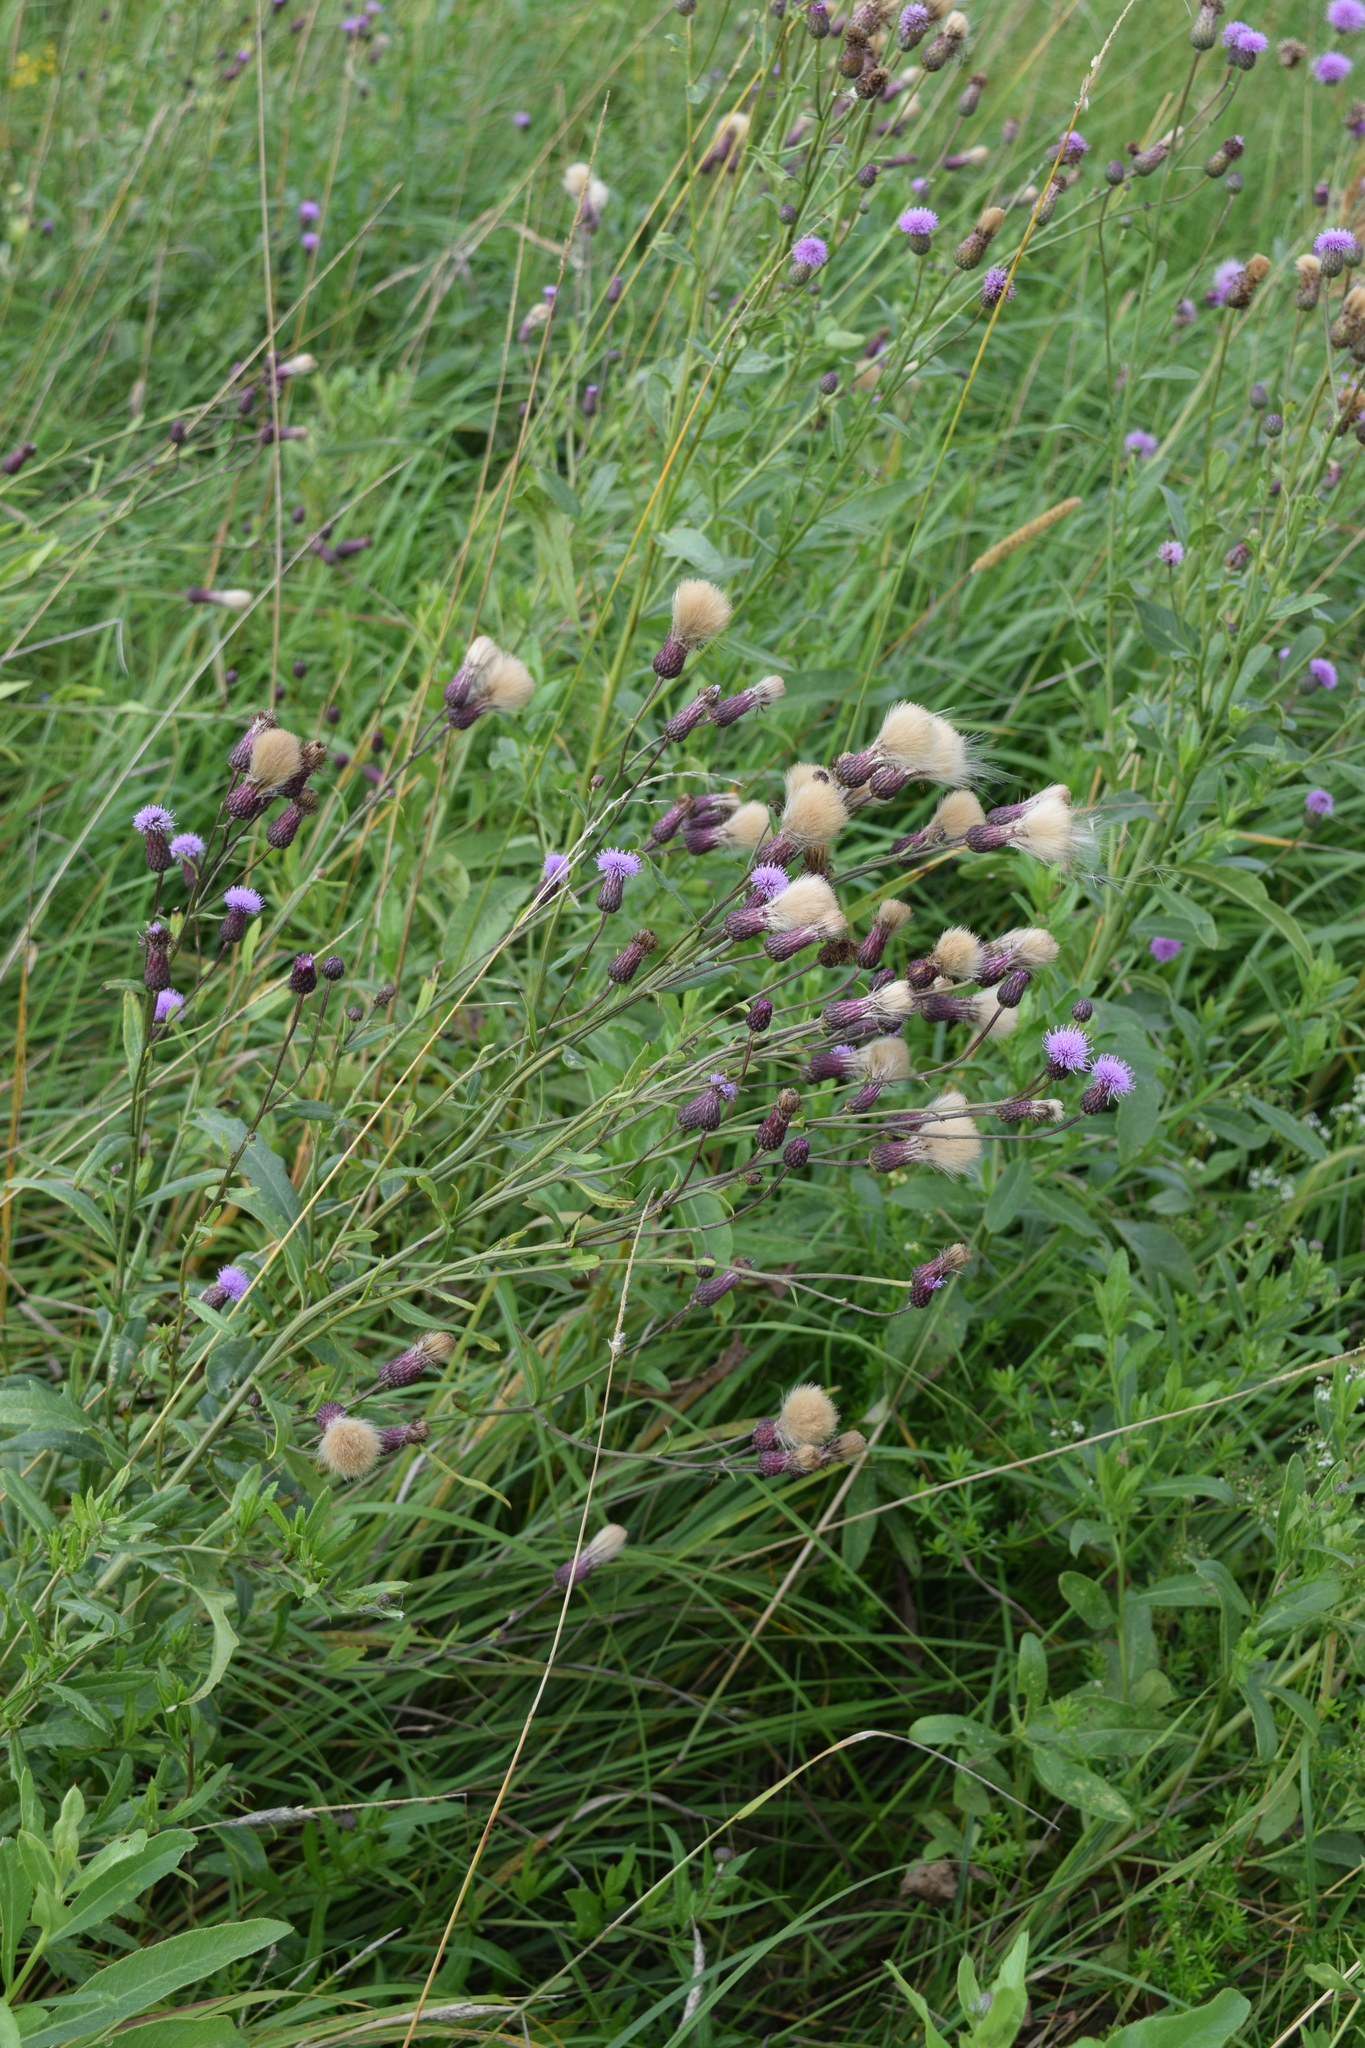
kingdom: Plantae
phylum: Tracheophyta
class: Magnoliopsida
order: Asterales
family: Asteraceae
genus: Cirsium
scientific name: Cirsium arvense
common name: Creeping thistle
